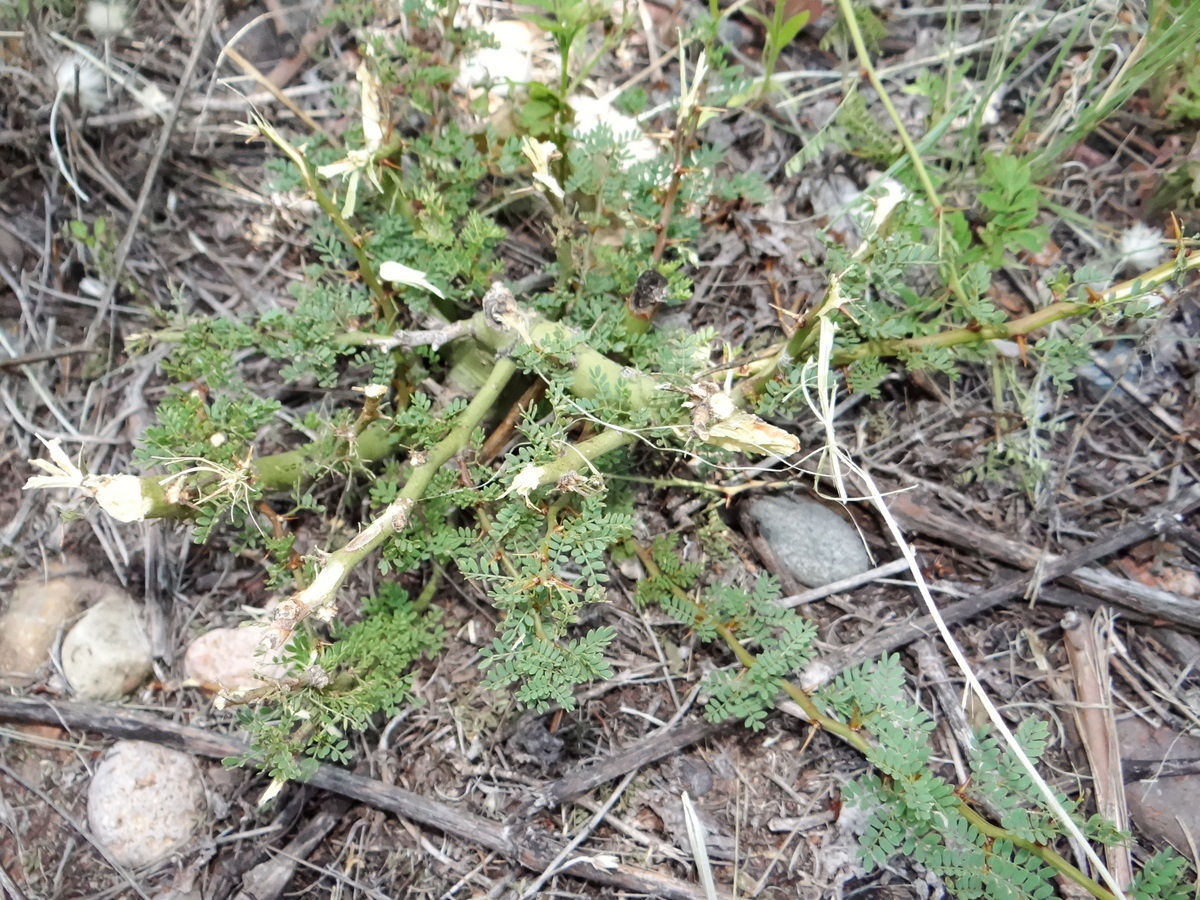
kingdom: Plantae
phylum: Tracheophyta
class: Magnoliopsida
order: Fabales
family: Fabaceae
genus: Parkinsonia
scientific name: Parkinsonia praecox
